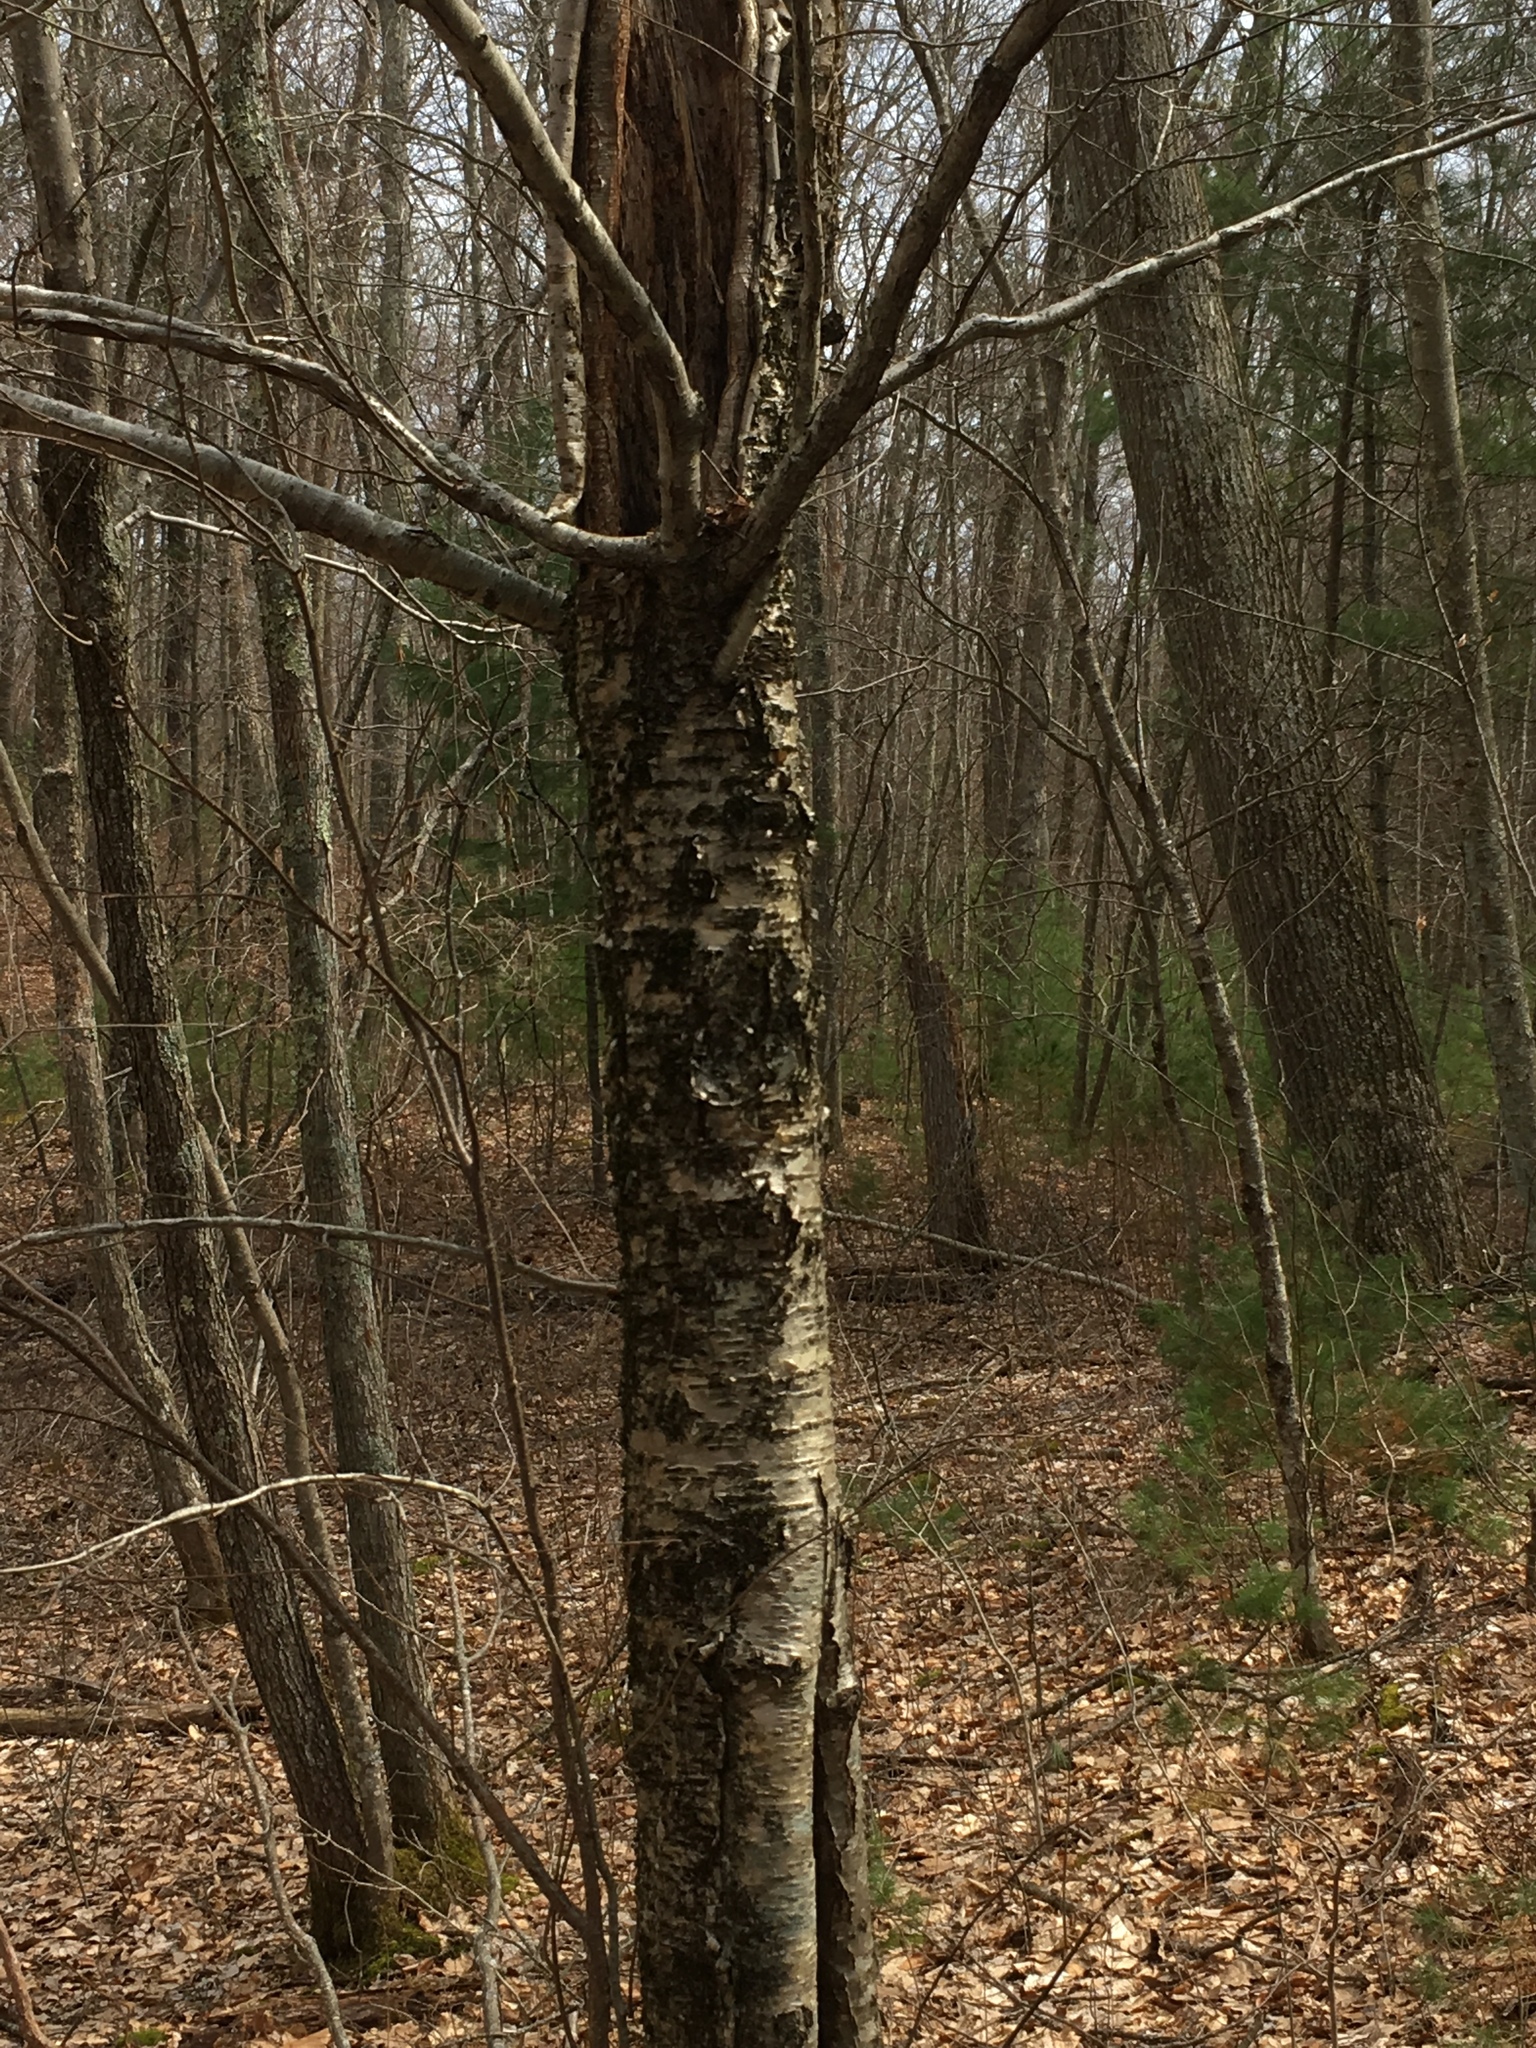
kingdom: Plantae
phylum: Tracheophyta
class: Magnoliopsida
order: Fagales
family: Betulaceae
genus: Betula
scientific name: Betula alleghaniensis
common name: Yellow birch
